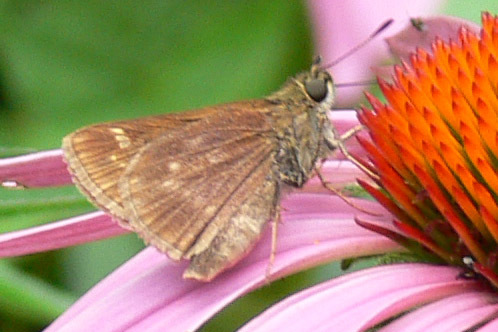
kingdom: Animalia
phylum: Arthropoda
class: Insecta
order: Lepidoptera
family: Hesperiidae
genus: Vernia
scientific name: Vernia verna
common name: Little glassywing
